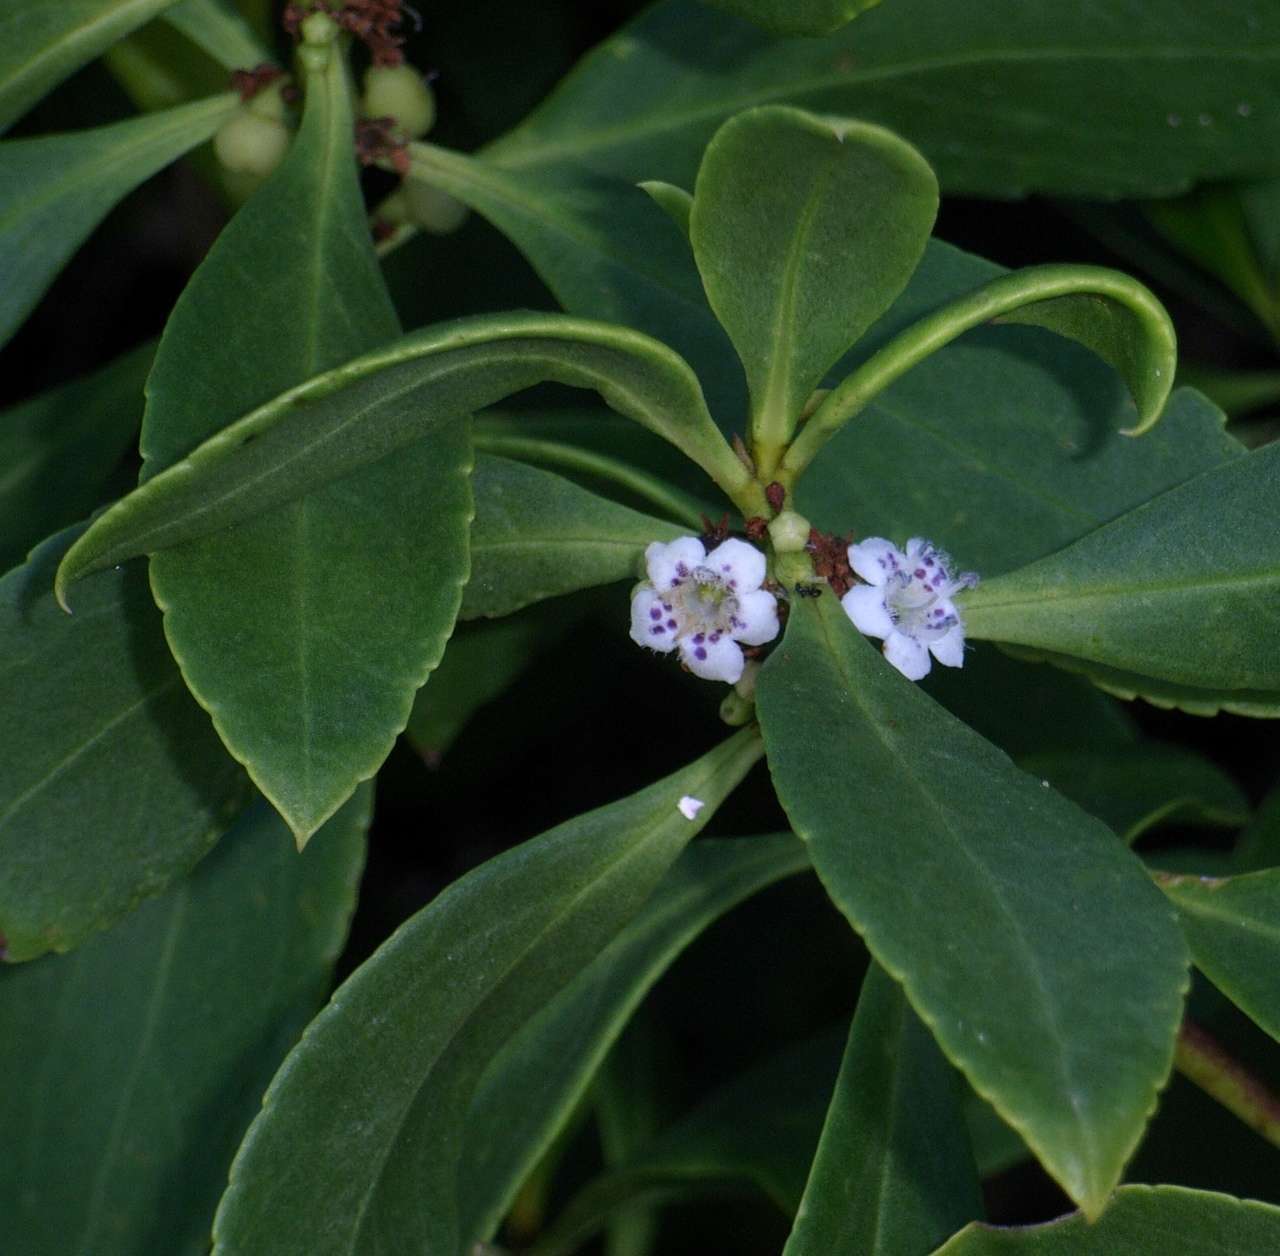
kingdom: Plantae
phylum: Tracheophyta
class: Magnoliopsida
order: Lamiales
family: Scrophulariaceae
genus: Myoporum
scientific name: Myoporum insulare
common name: Common boobialla
